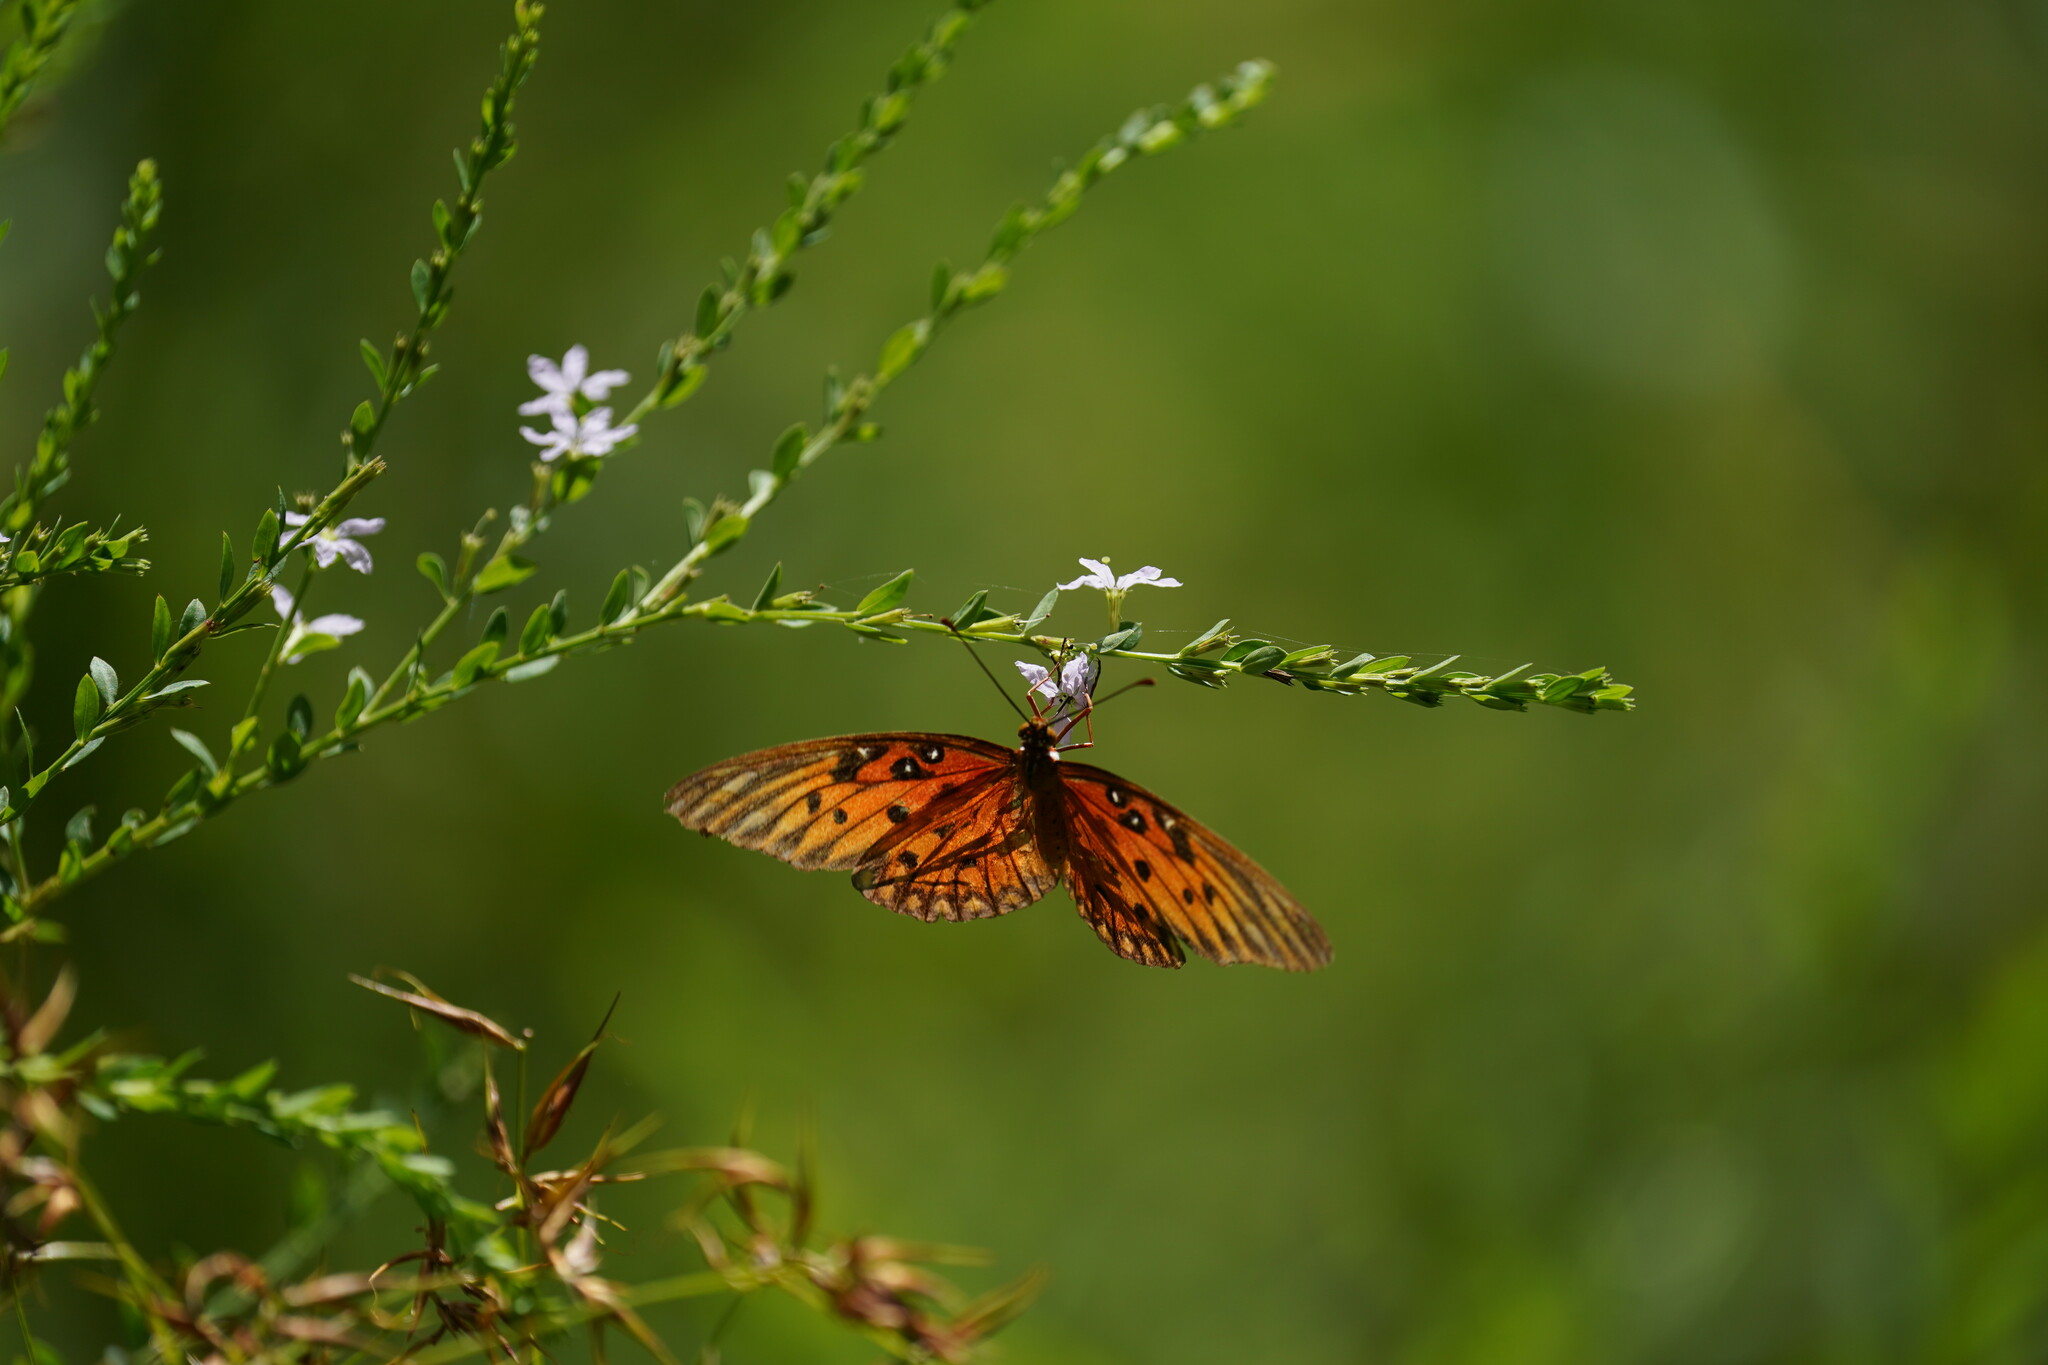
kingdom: Animalia
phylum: Arthropoda
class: Insecta
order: Lepidoptera
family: Nymphalidae
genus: Dione
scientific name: Dione vanillae
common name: Gulf fritillary
